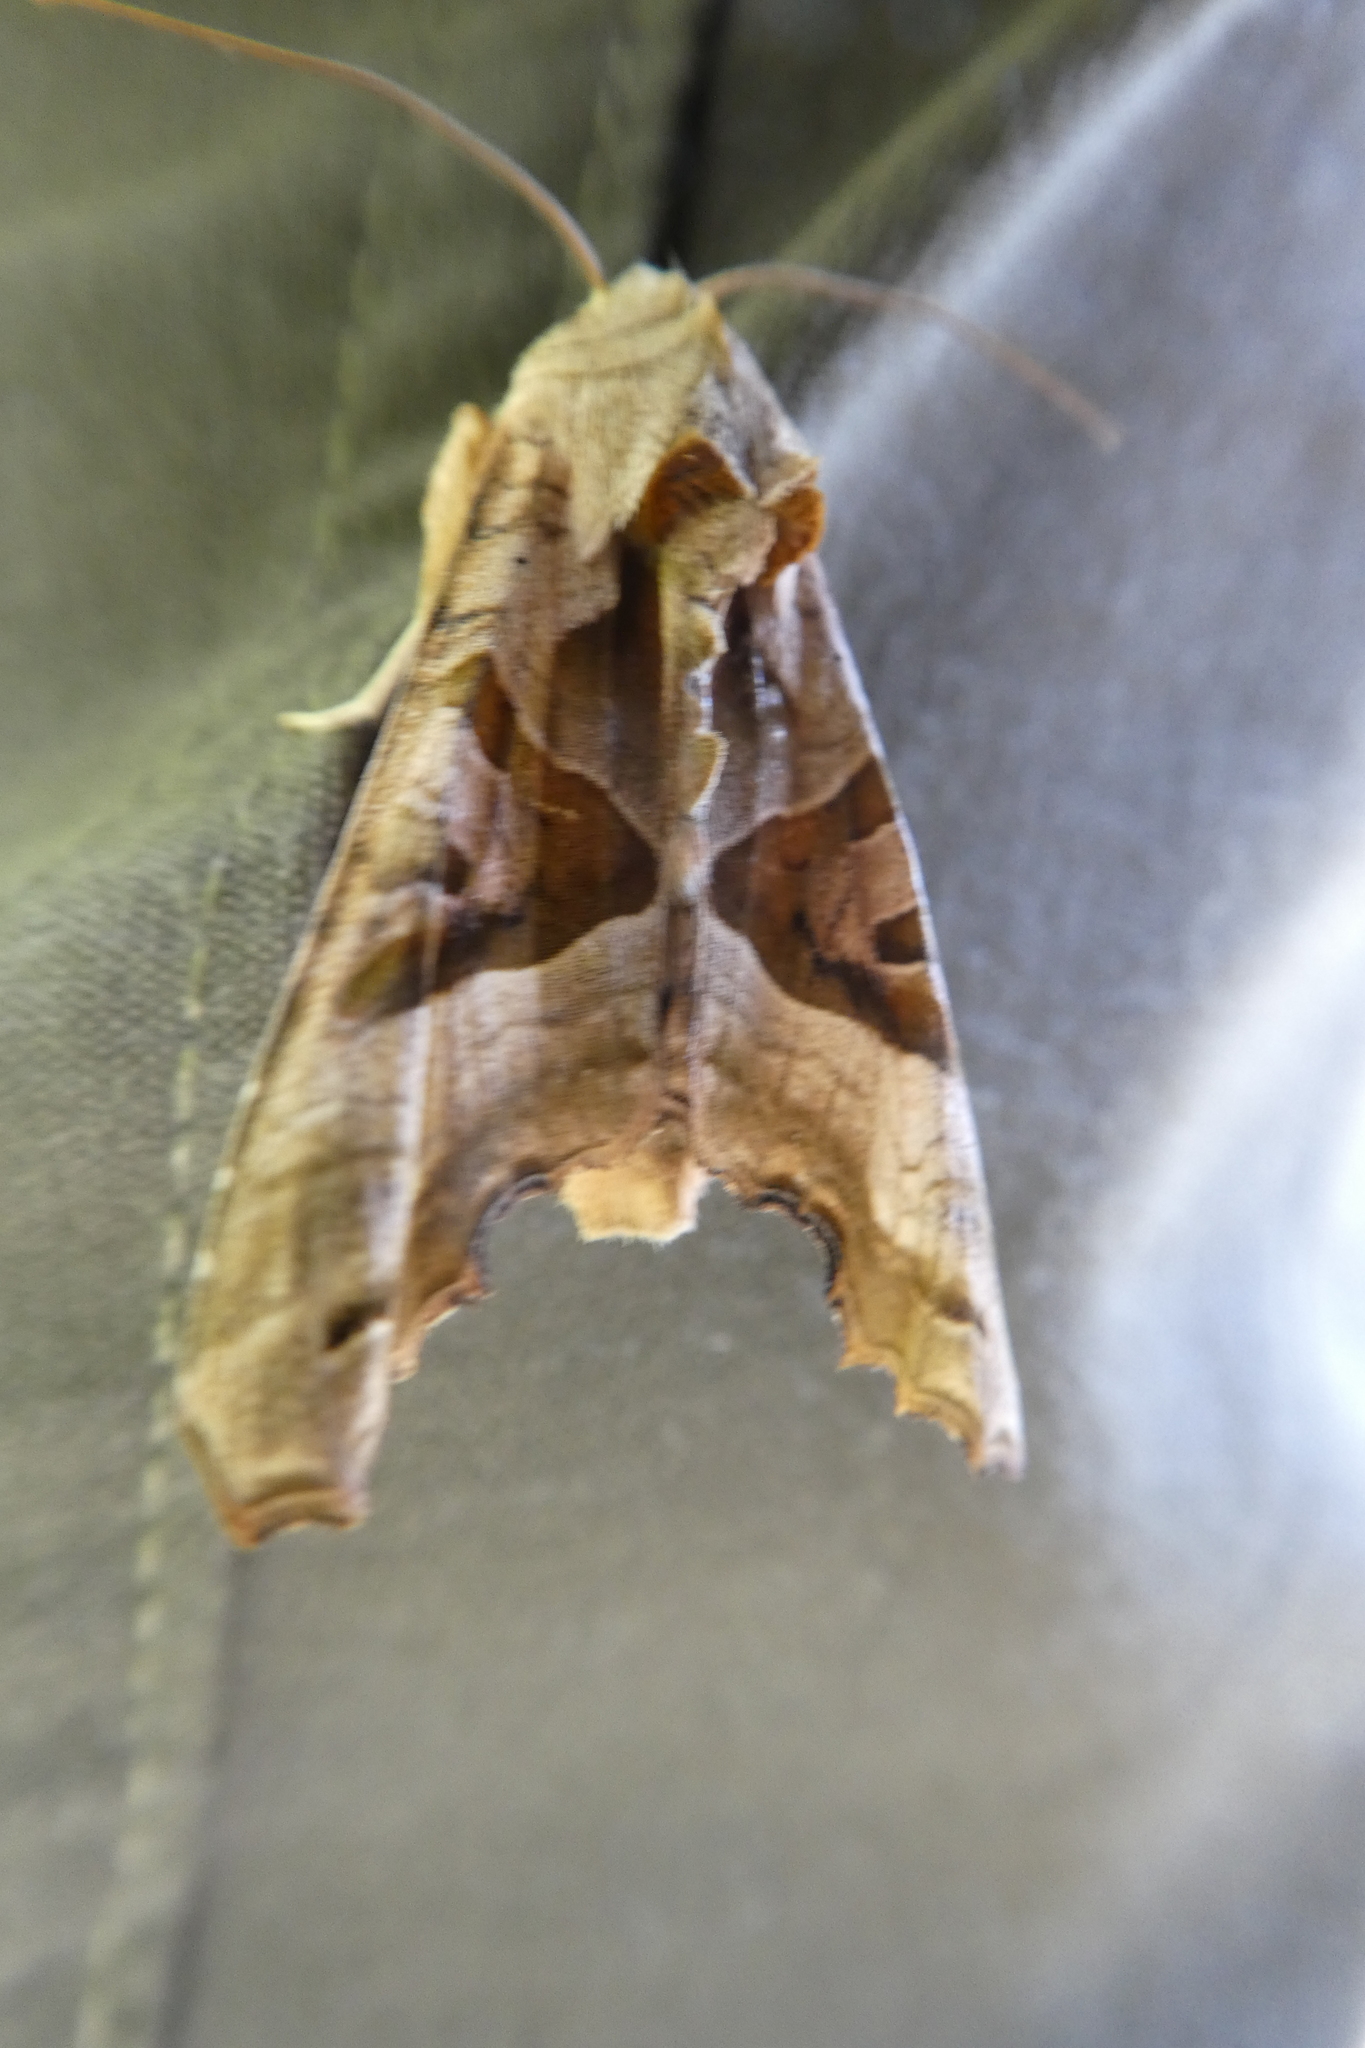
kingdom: Animalia
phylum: Arthropoda
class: Insecta
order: Lepidoptera
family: Noctuidae
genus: Phlogophora
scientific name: Phlogophora meticulosa
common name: Angle shades
